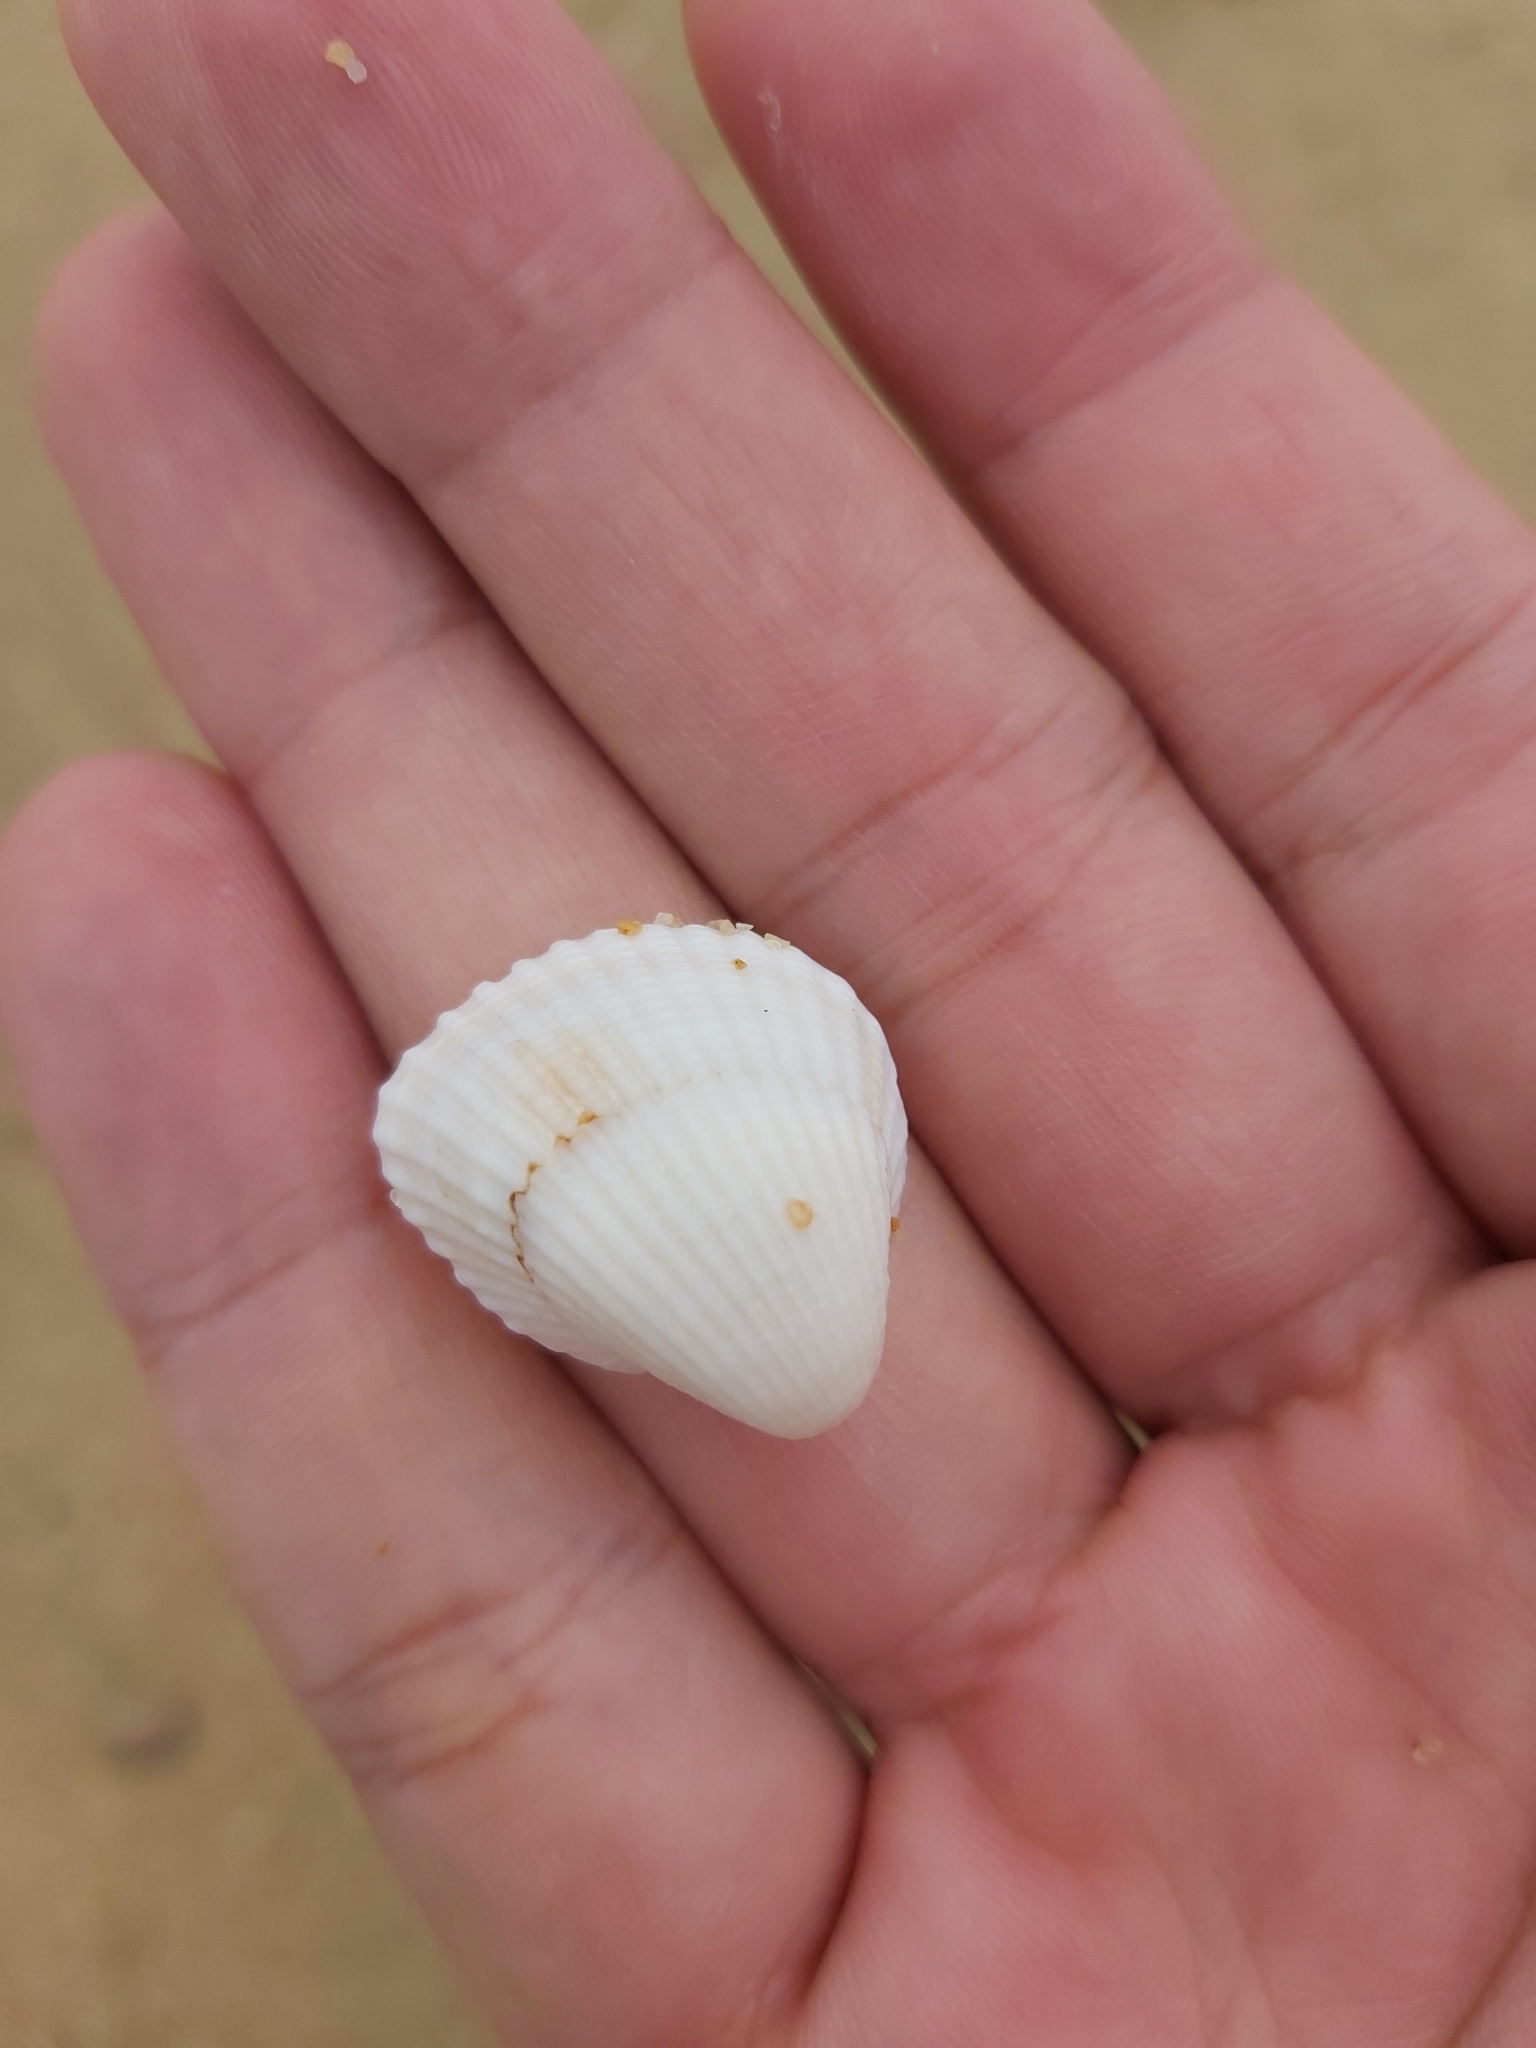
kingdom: Animalia
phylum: Mollusca
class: Bivalvia
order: Arcida
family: Arcidae
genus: Anadara
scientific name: Anadara pilula
